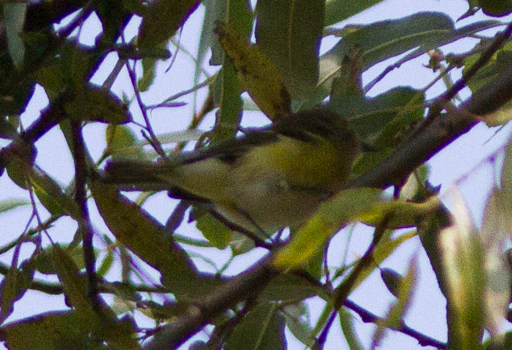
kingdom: Animalia
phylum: Chordata
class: Aves
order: Passeriformes
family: Vireonidae
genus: Vireo
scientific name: Vireo griseus
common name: White-eyed vireo
